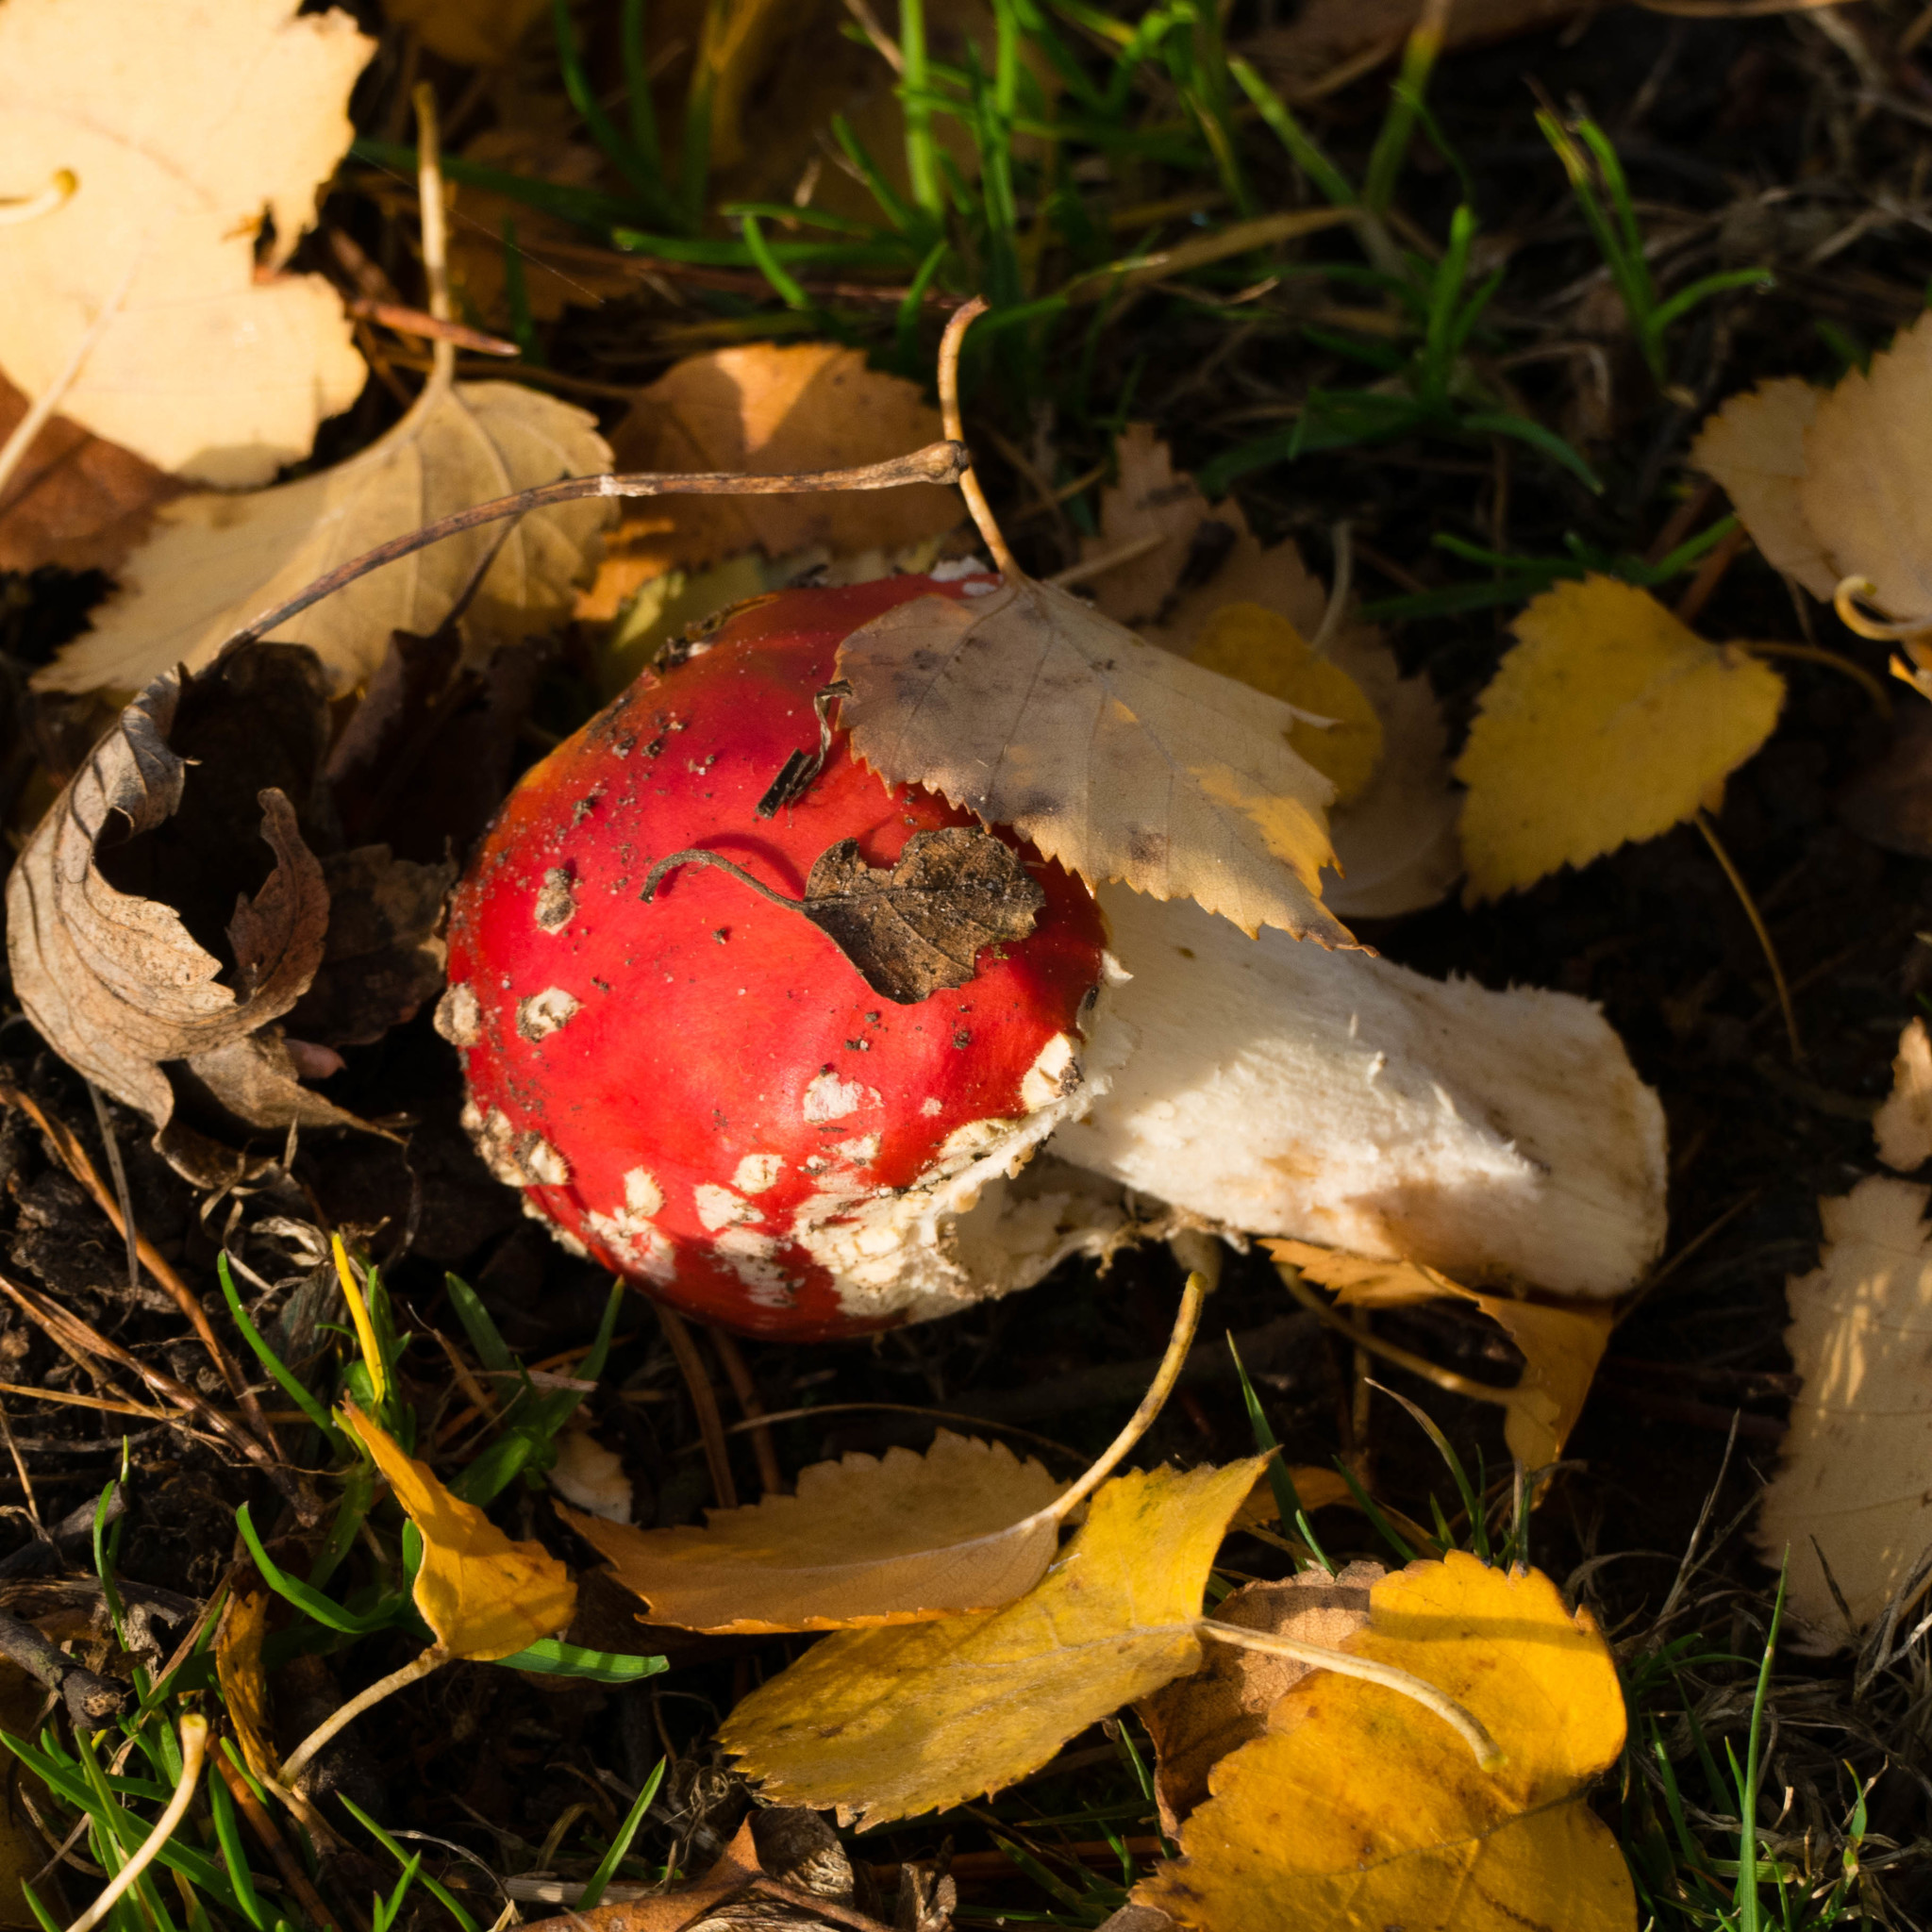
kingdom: Fungi
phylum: Basidiomycota
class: Agaricomycetes
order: Agaricales
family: Amanitaceae
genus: Amanita
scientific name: Amanita muscaria
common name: Fly agaric
